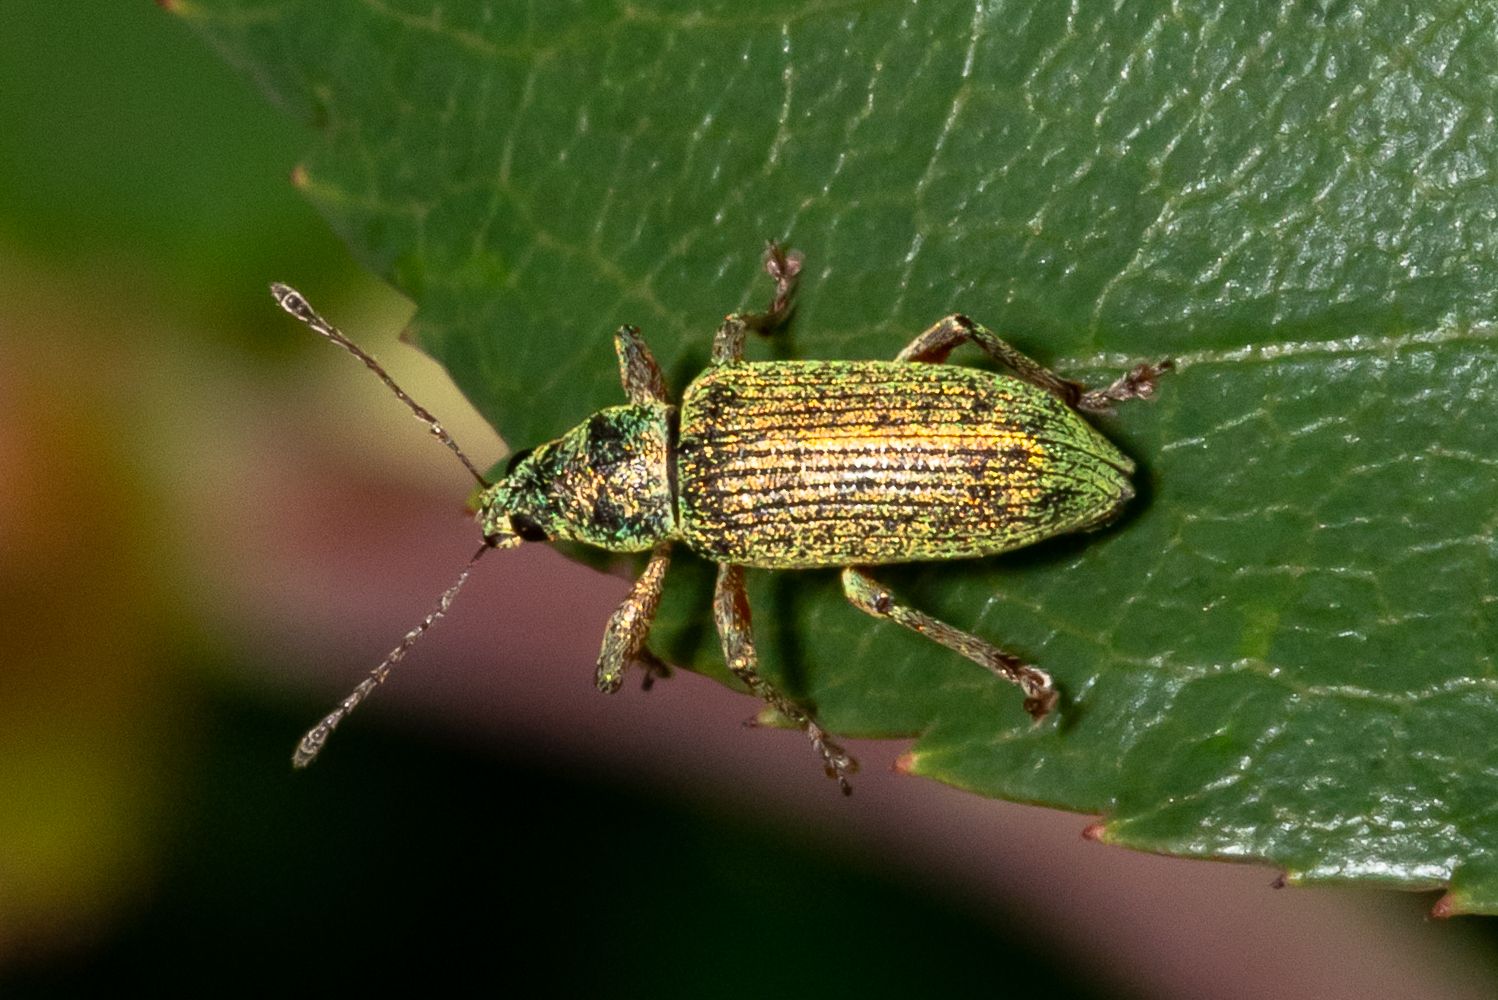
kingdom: Animalia
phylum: Arthropoda
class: Insecta
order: Coleoptera
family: Curculionidae
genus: Polydrusus
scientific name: Polydrusus formosus
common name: Weevil
